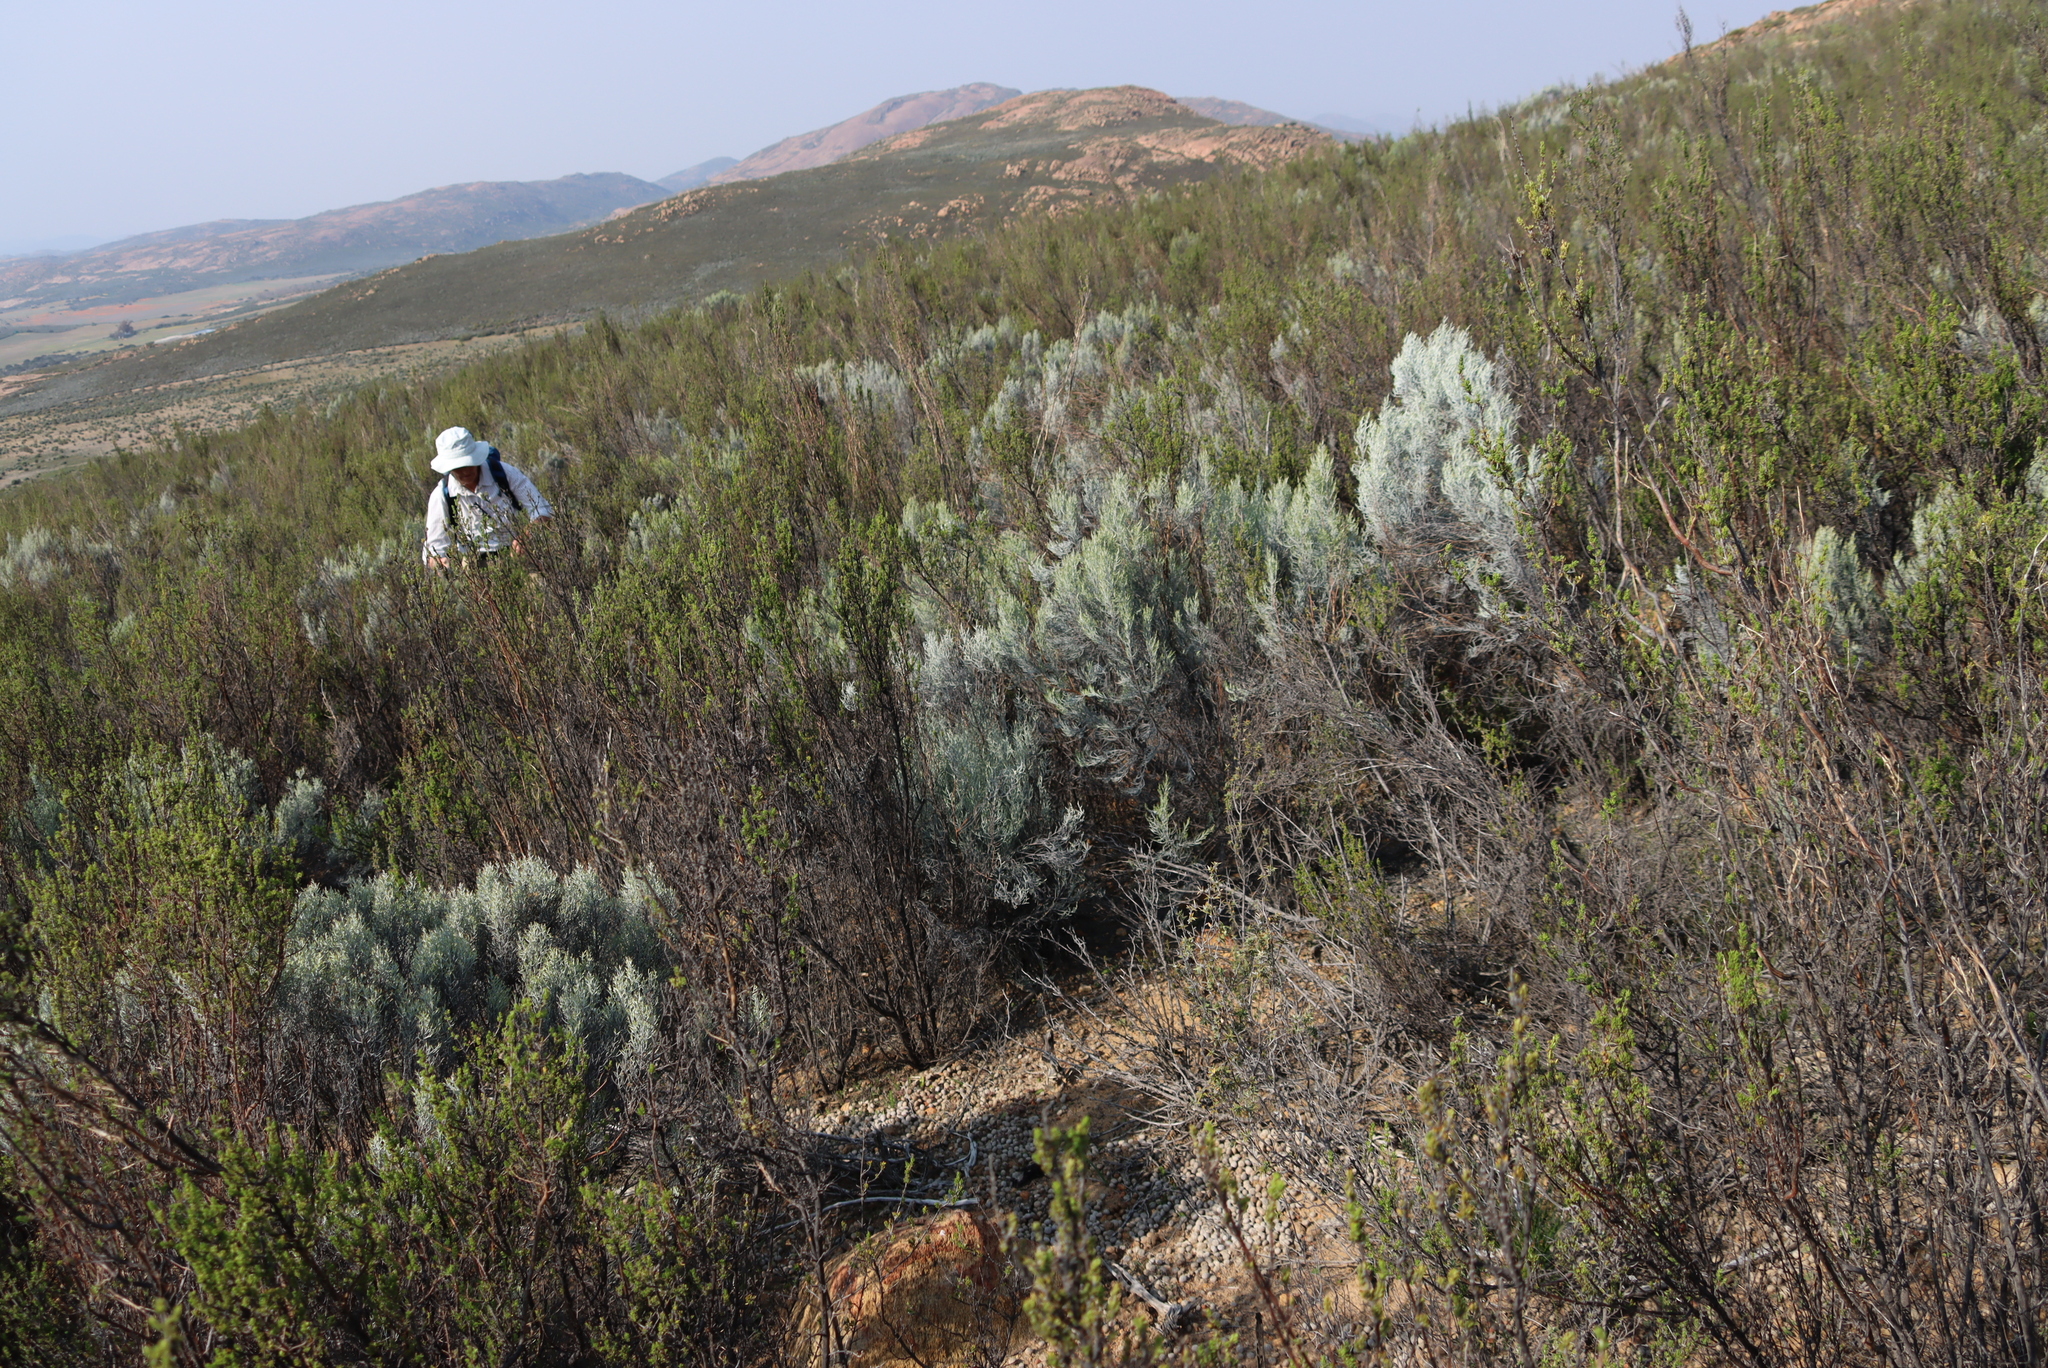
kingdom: Plantae
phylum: Tracheophyta
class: Magnoliopsida
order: Asterales
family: Asteraceae
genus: Dicerothamnus
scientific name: Dicerothamnus rhinocerotis
